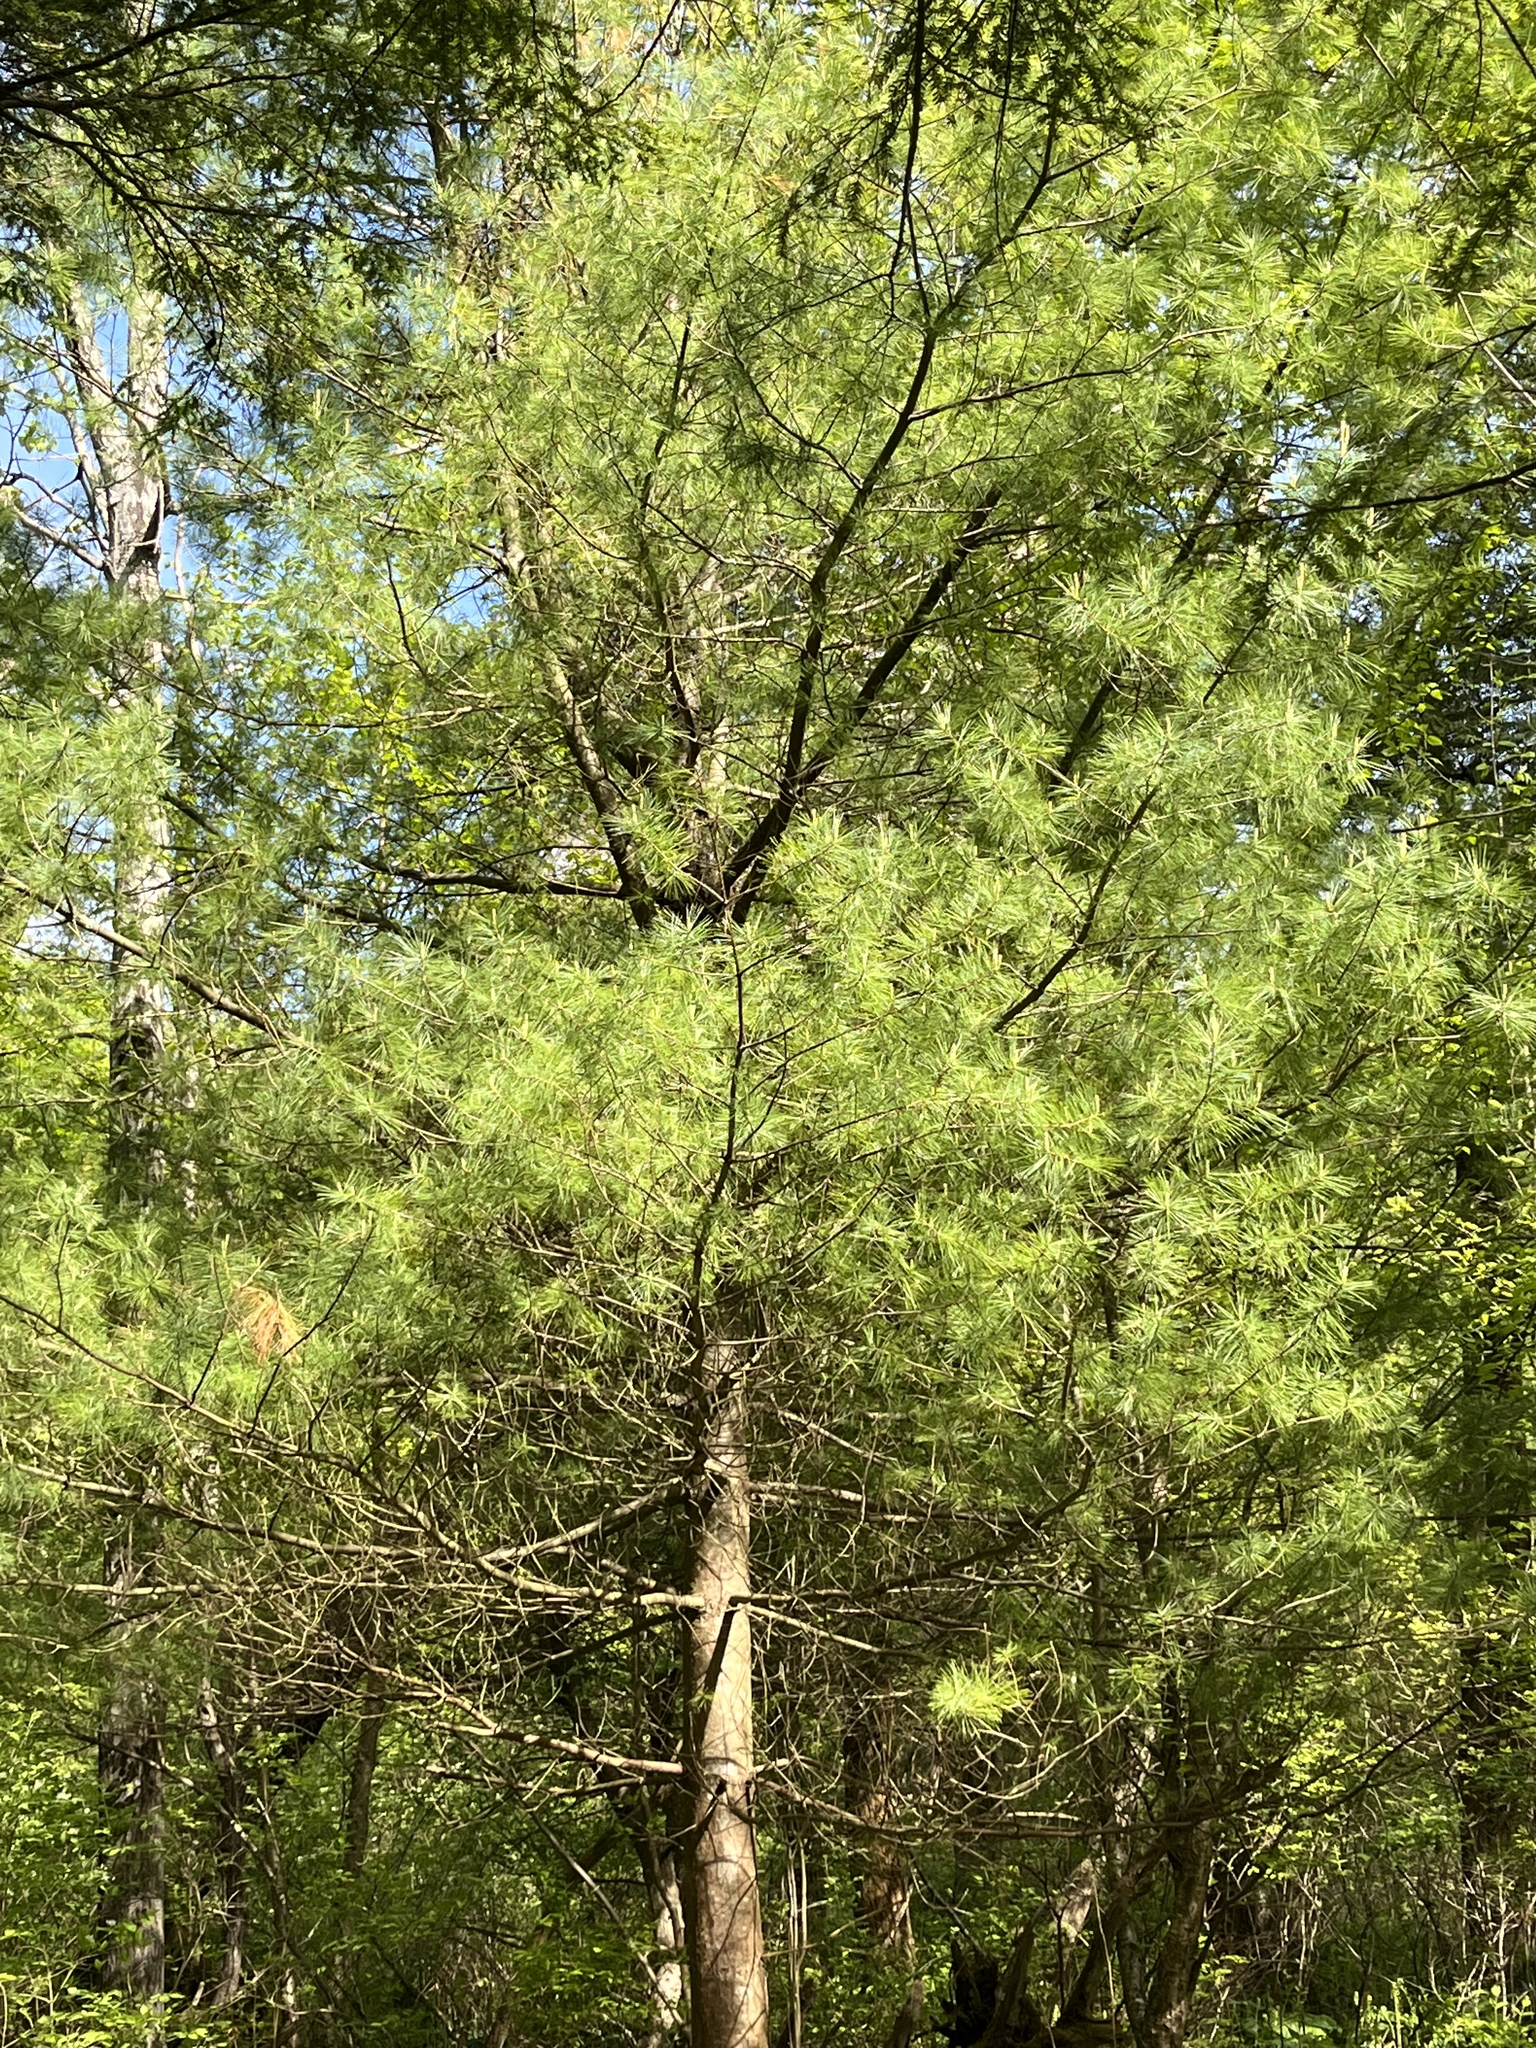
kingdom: Plantae
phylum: Tracheophyta
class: Pinopsida
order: Pinales
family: Pinaceae
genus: Pinus
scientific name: Pinus strobus
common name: Weymouth pine
